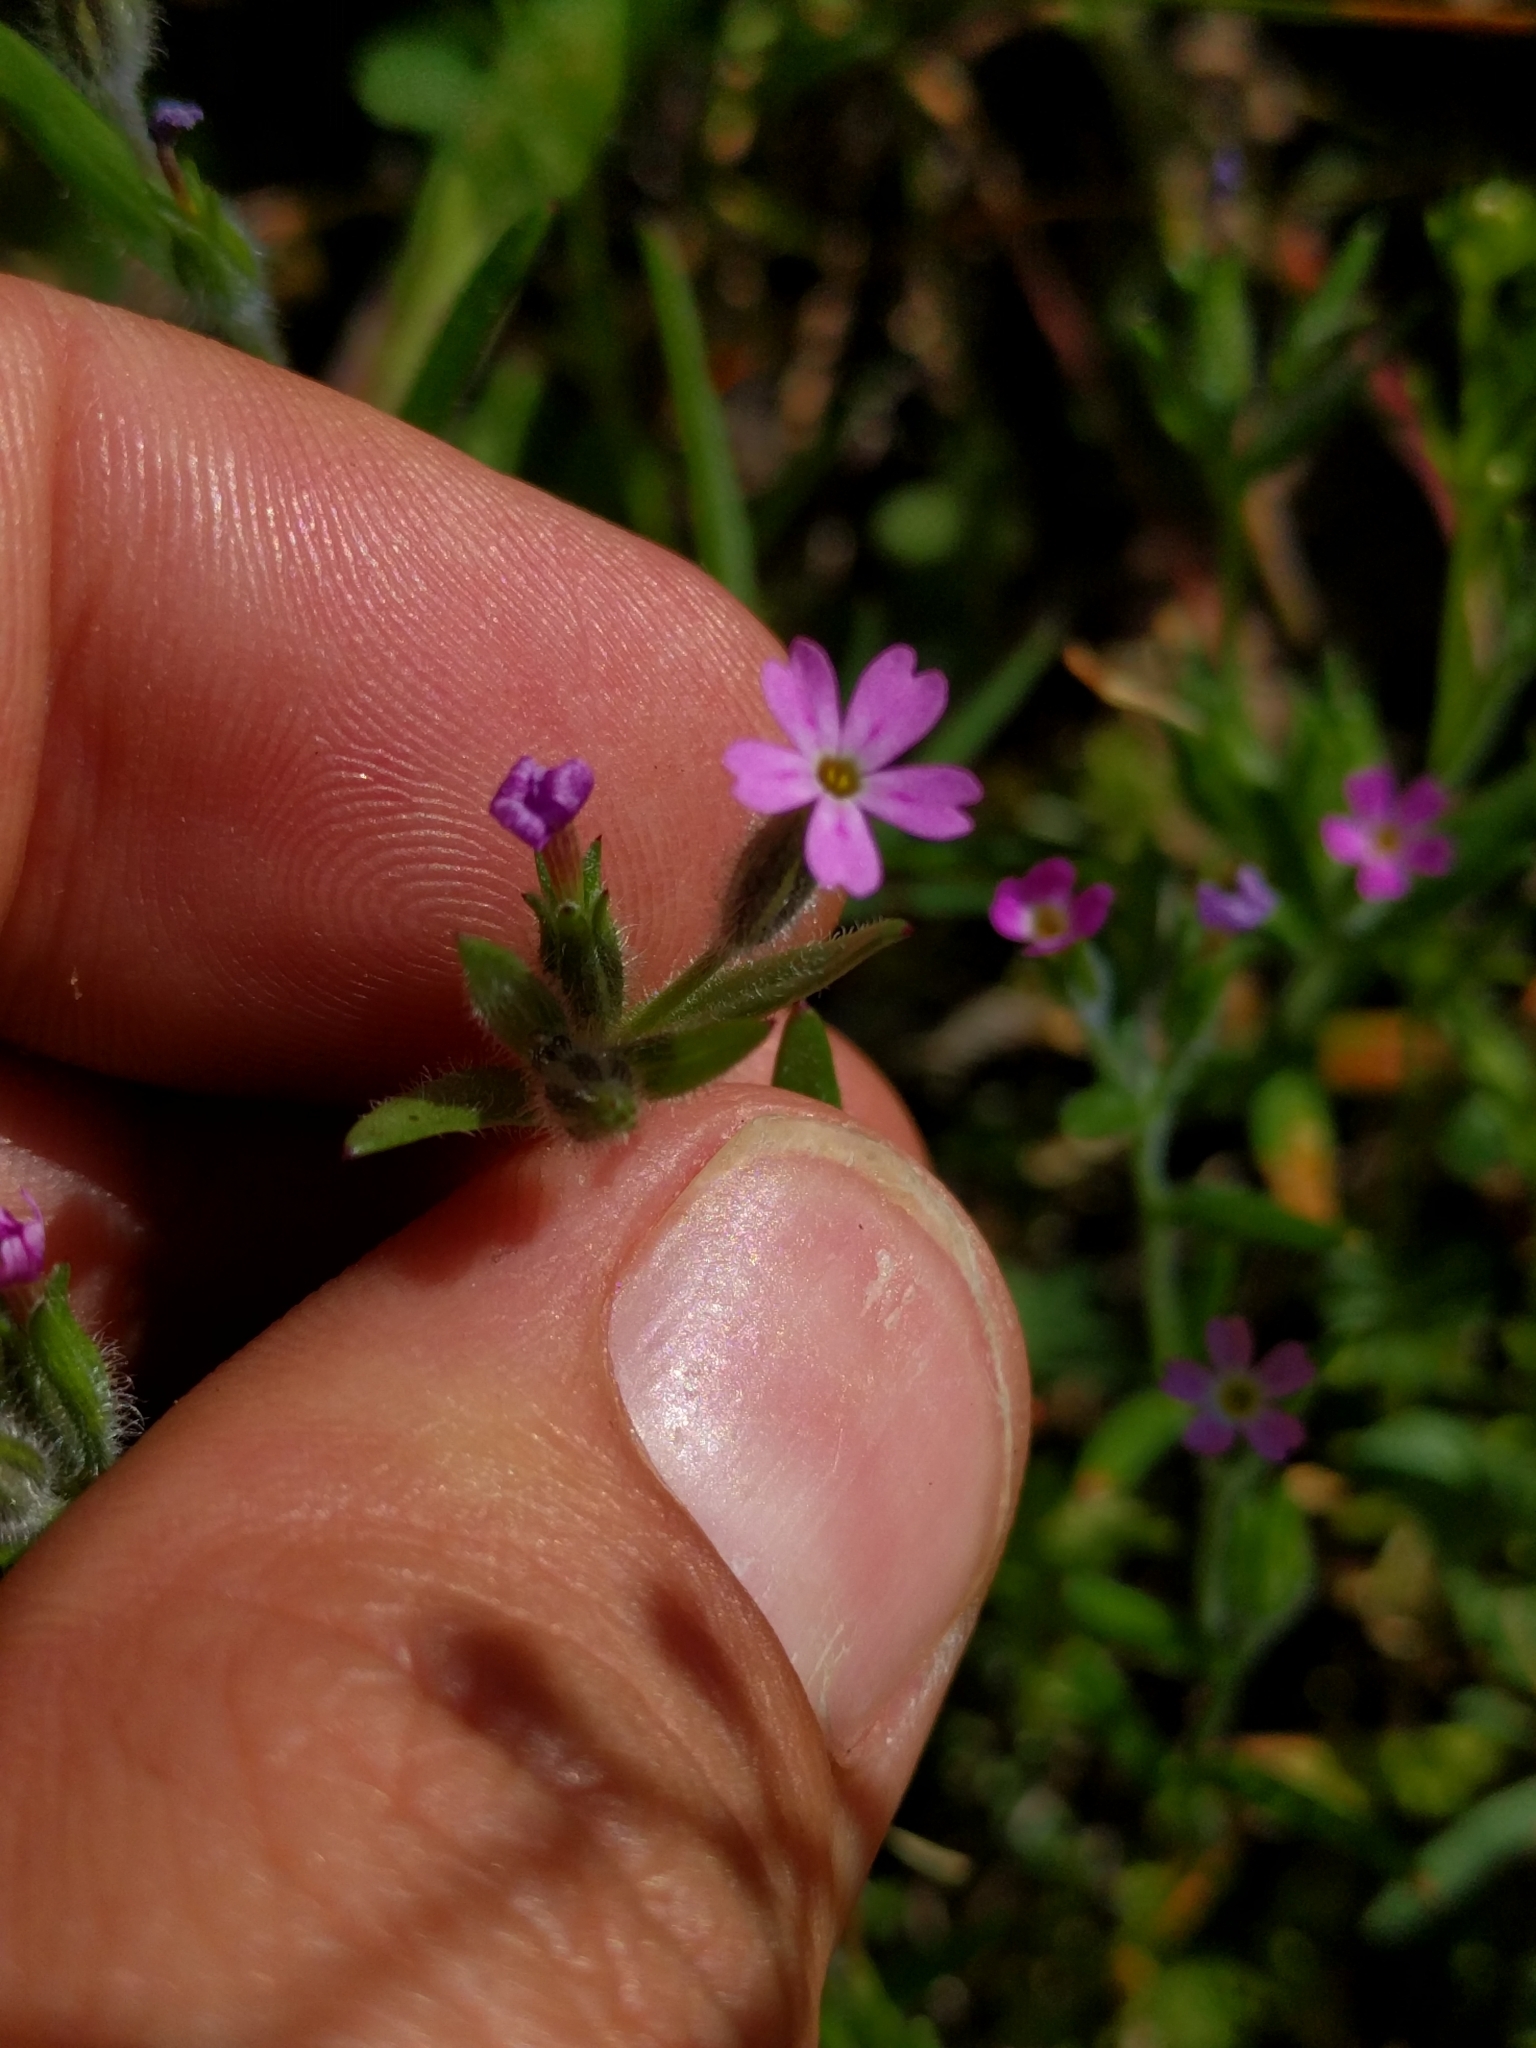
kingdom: Plantae
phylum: Tracheophyta
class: Magnoliopsida
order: Ericales
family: Polemoniaceae
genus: Phlox
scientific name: Phlox gracilis
